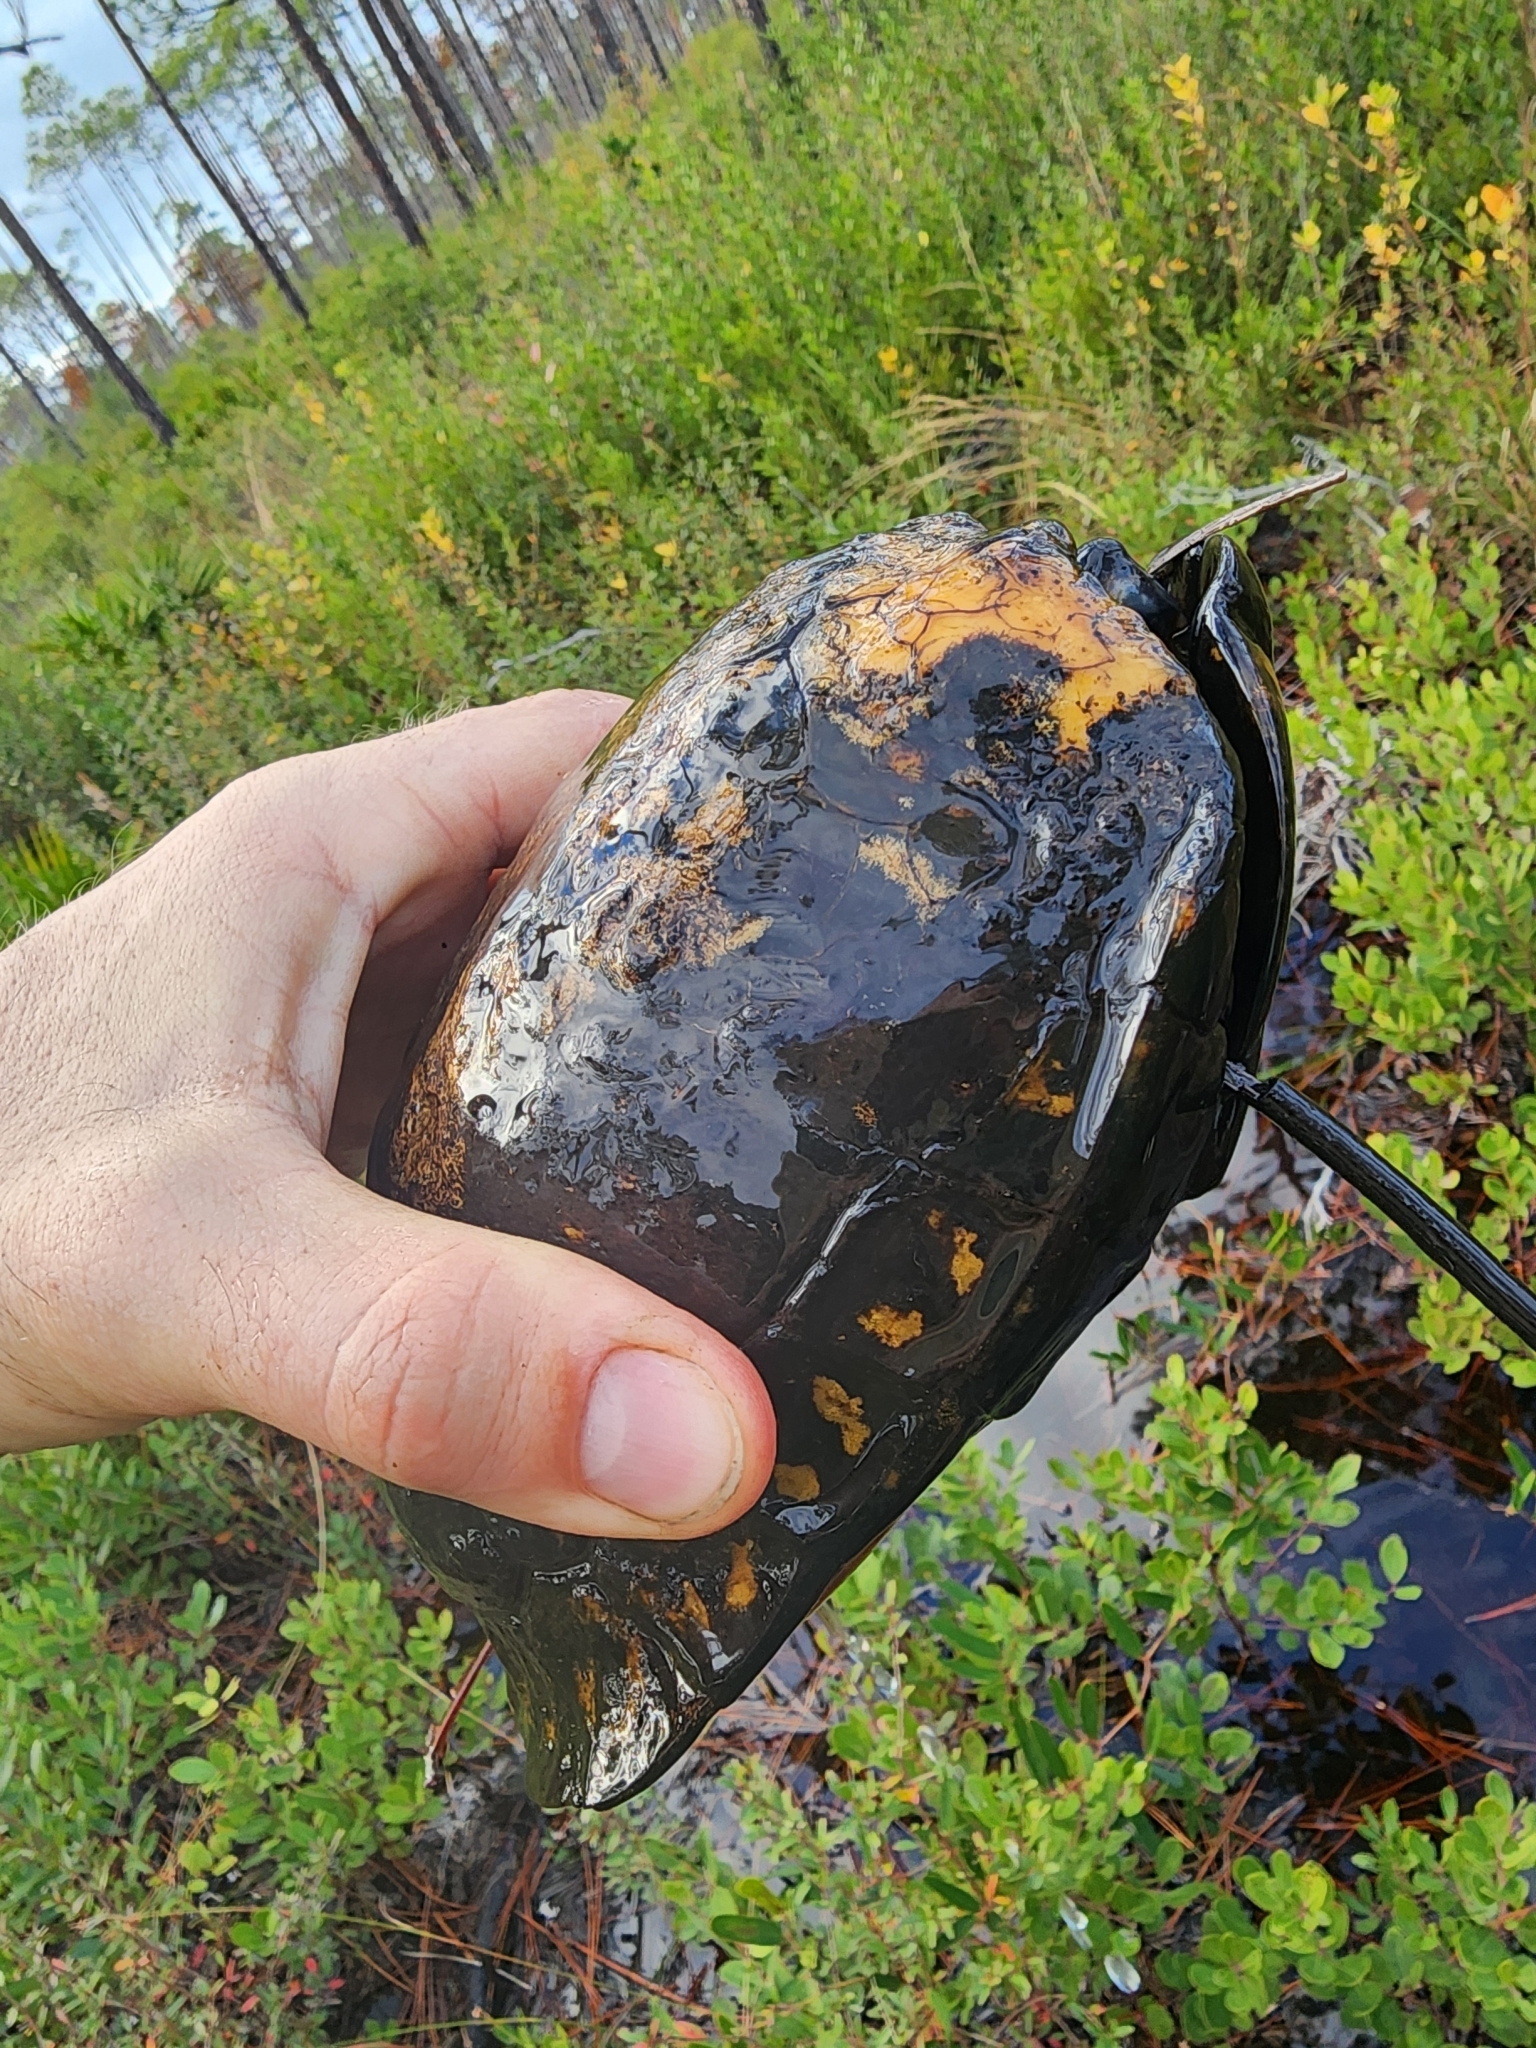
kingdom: Animalia
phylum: Chordata
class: Testudines
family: Emydidae
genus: Terrapene
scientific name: Terrapene carolina
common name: Common box turtle
